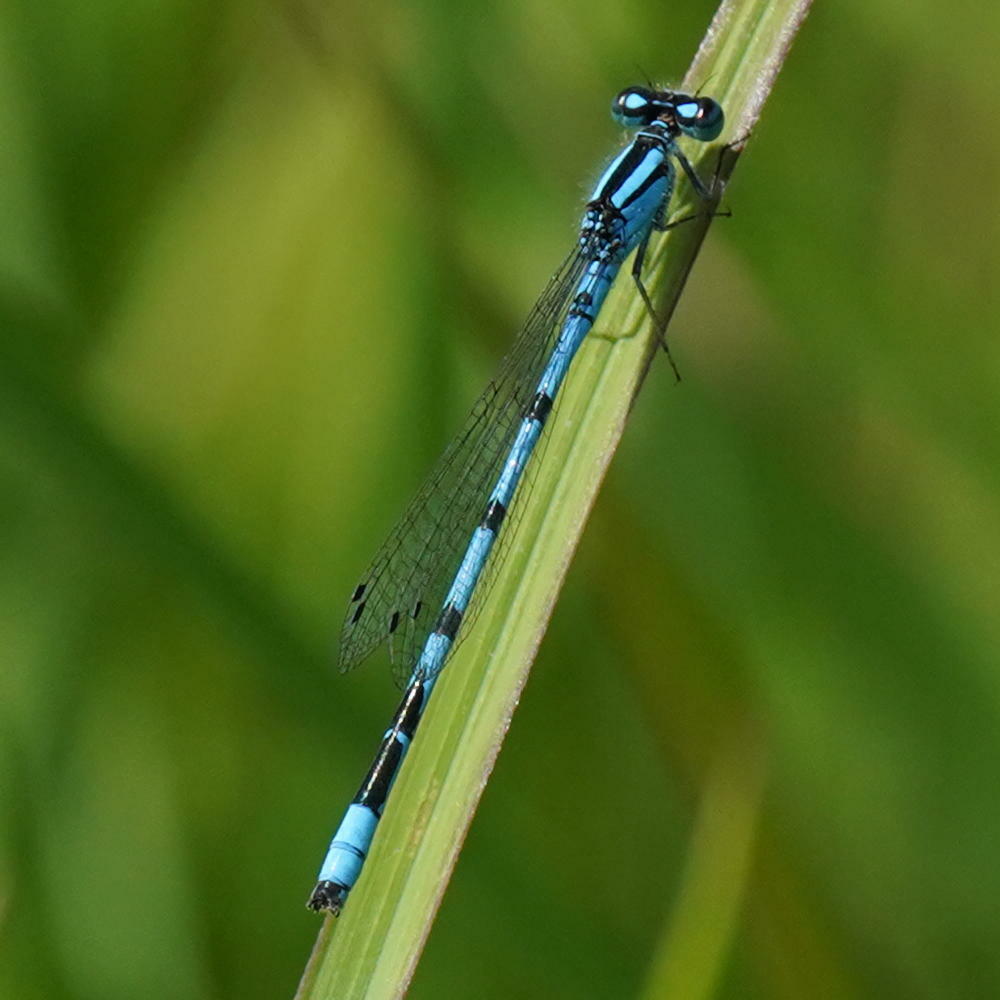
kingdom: Animalia
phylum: Arthropoda
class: Insecta
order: Odonata
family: Coenagrionidae
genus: Enallagma
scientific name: Enallagma ebrium
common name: Marsh bluet
